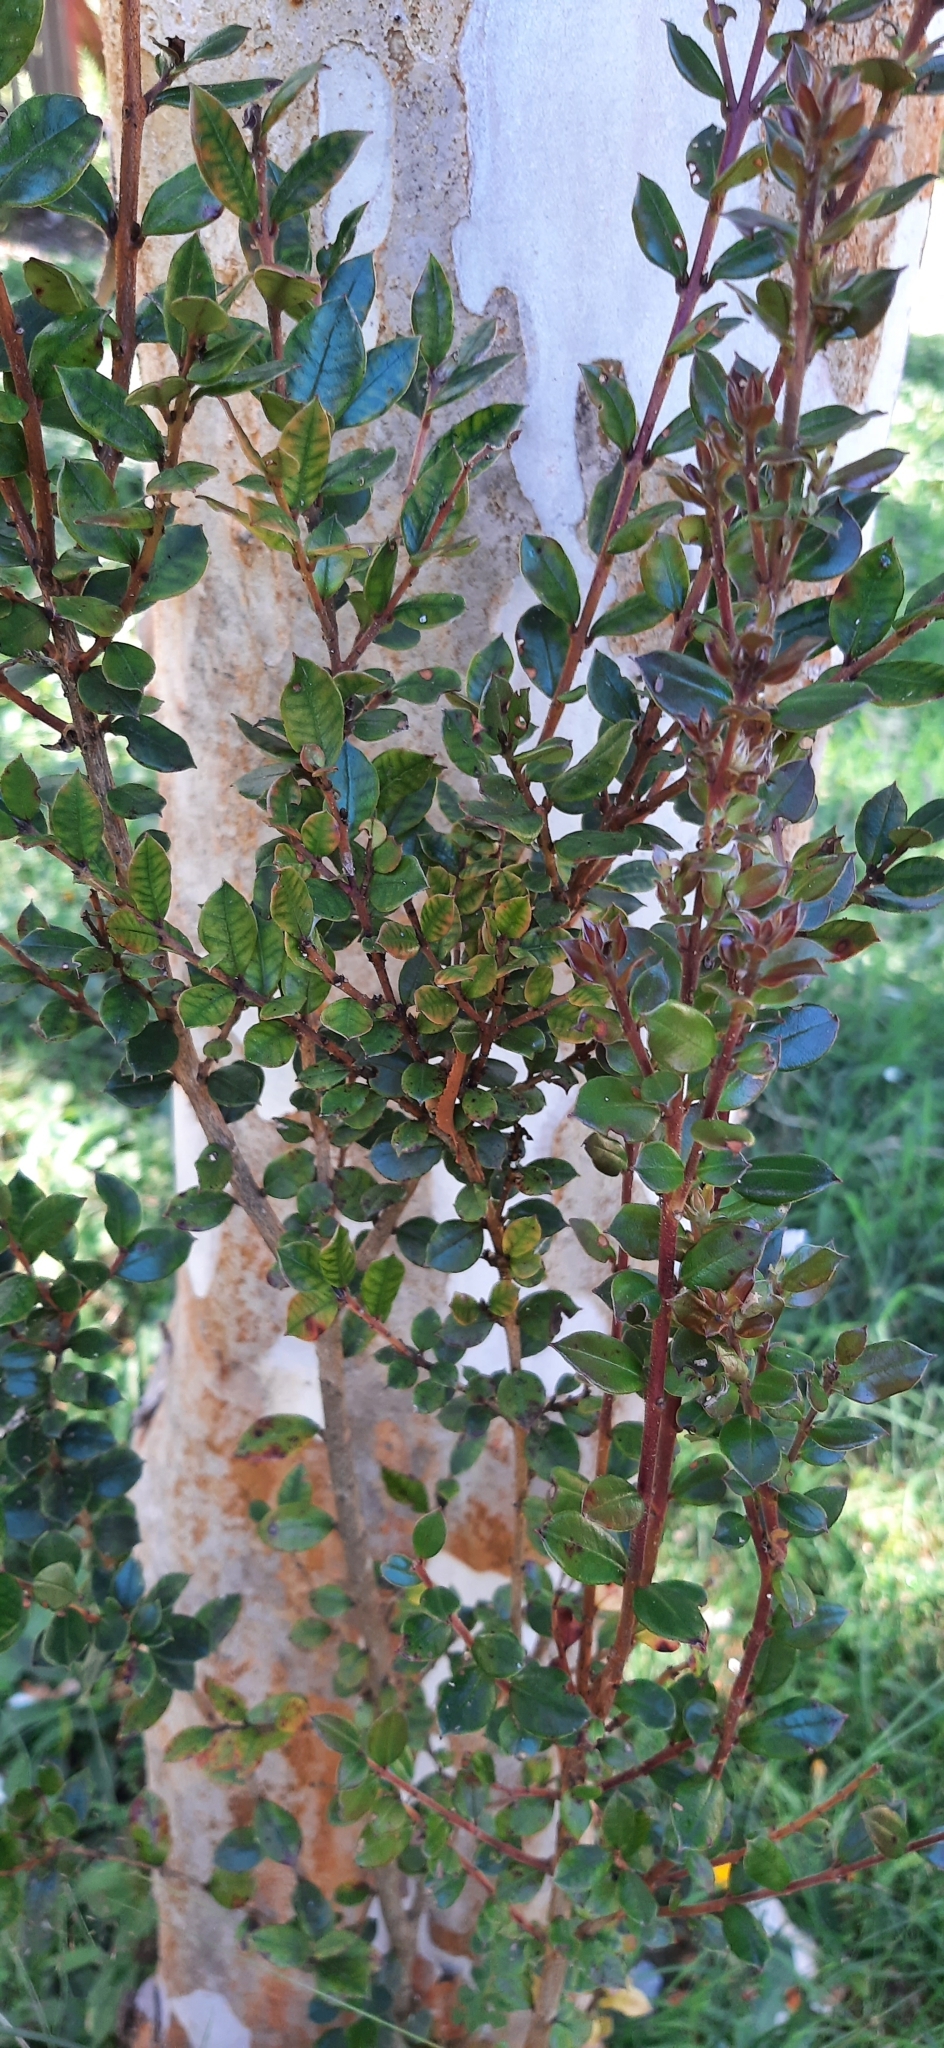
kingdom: Plantae
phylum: Tracheophyta
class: Magnoliopsida
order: Myrtales
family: Myrtaceae
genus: Luma
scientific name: Luma apiculata
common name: Chilean myrtle
